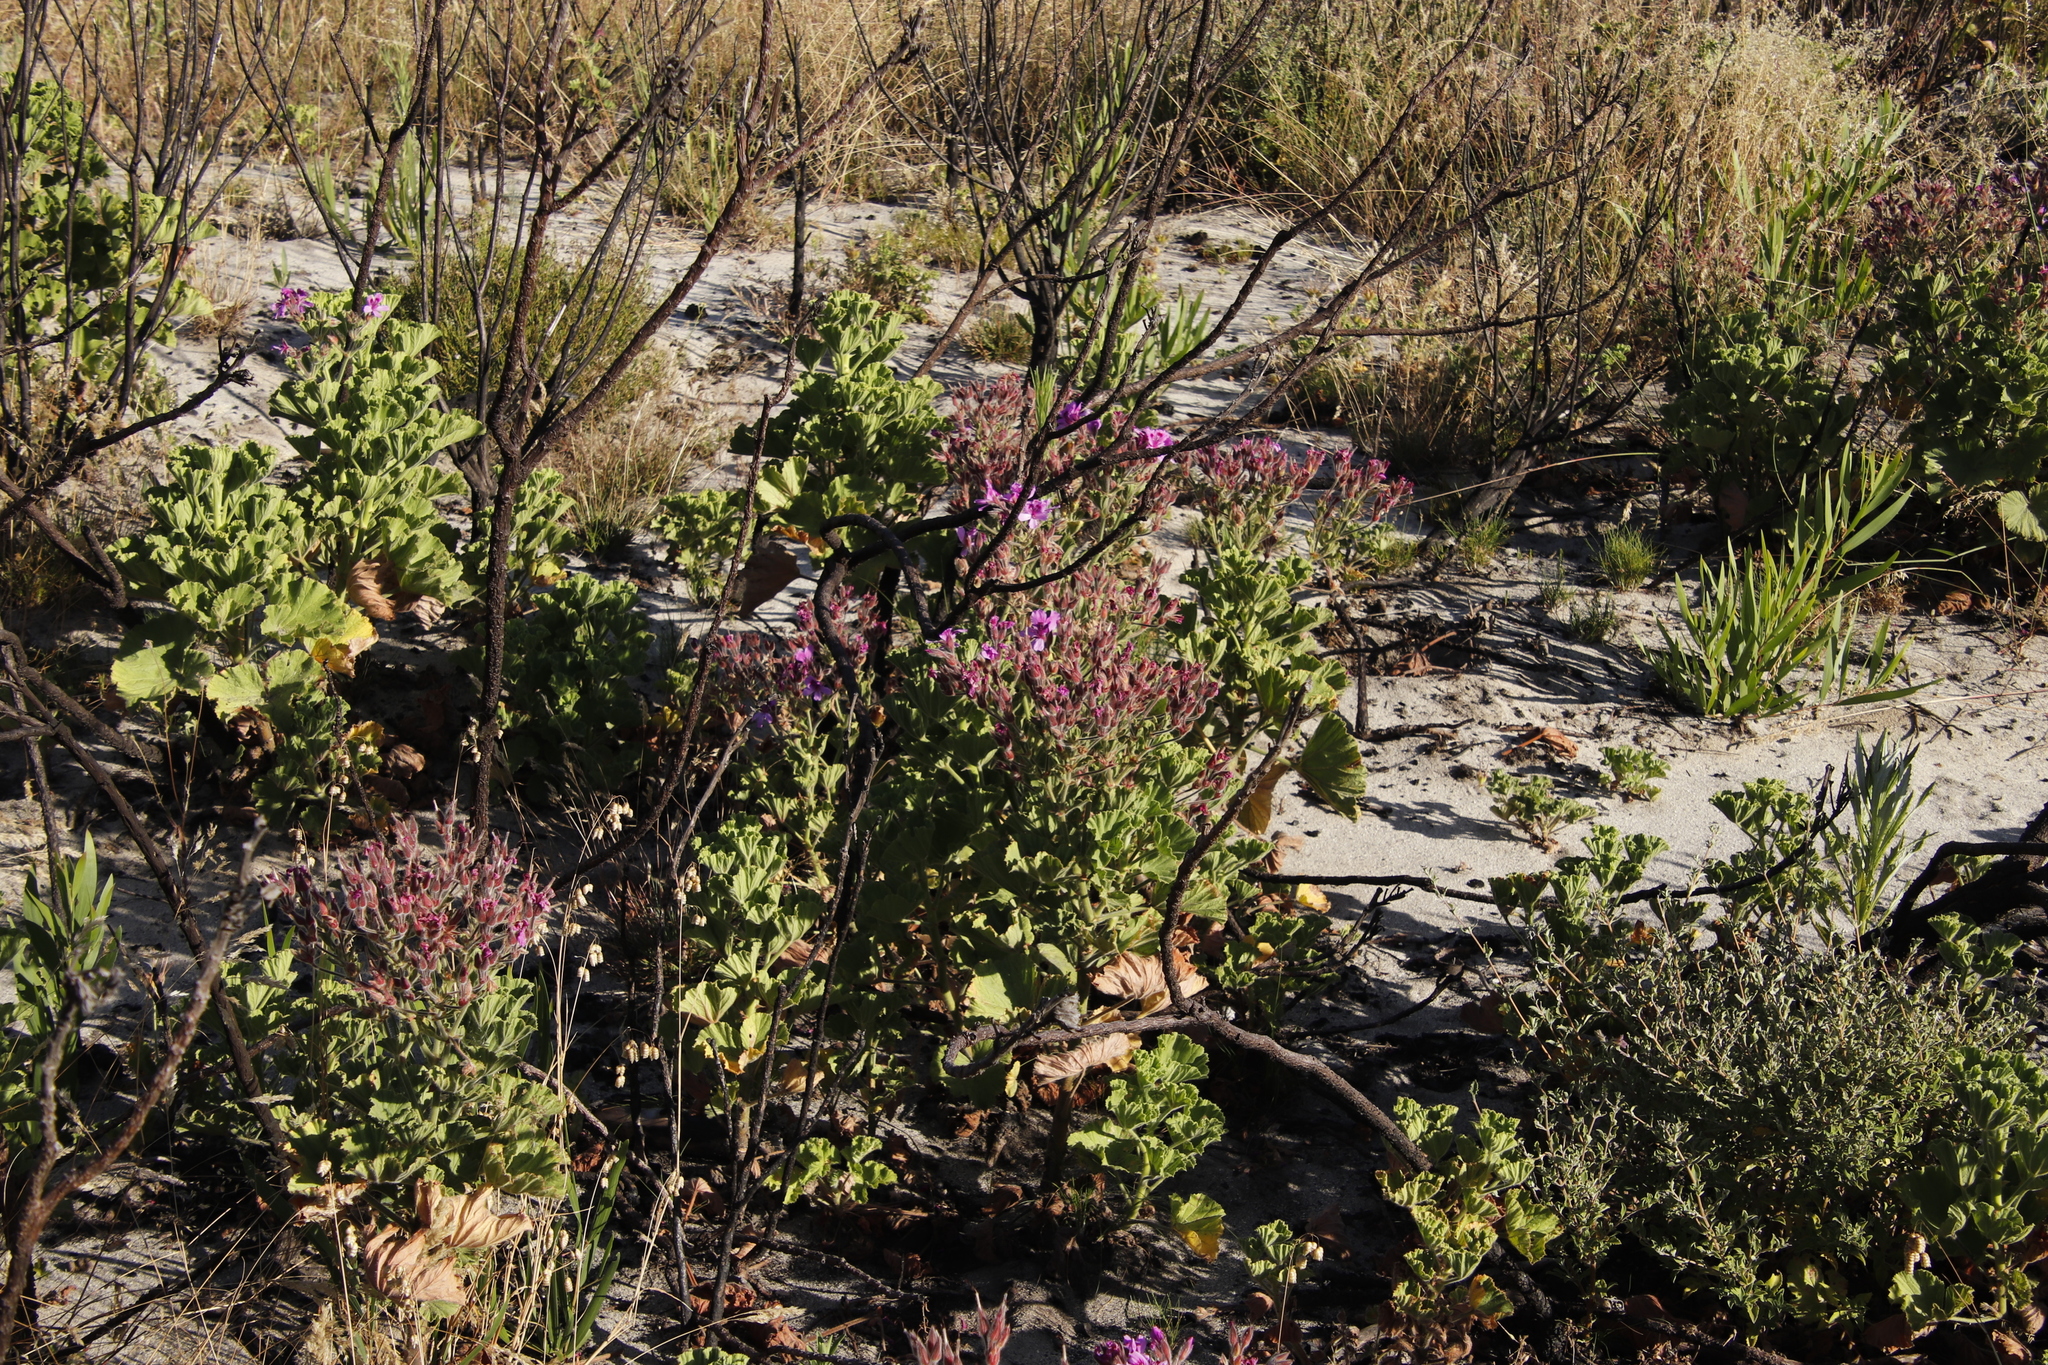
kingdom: Plantae
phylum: Tracheophyta
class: Magnoliopsida
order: Geraniales
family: Geraniaceae
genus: Pelargonium
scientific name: Pelargonium cucullatum
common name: Tree pelargonium
